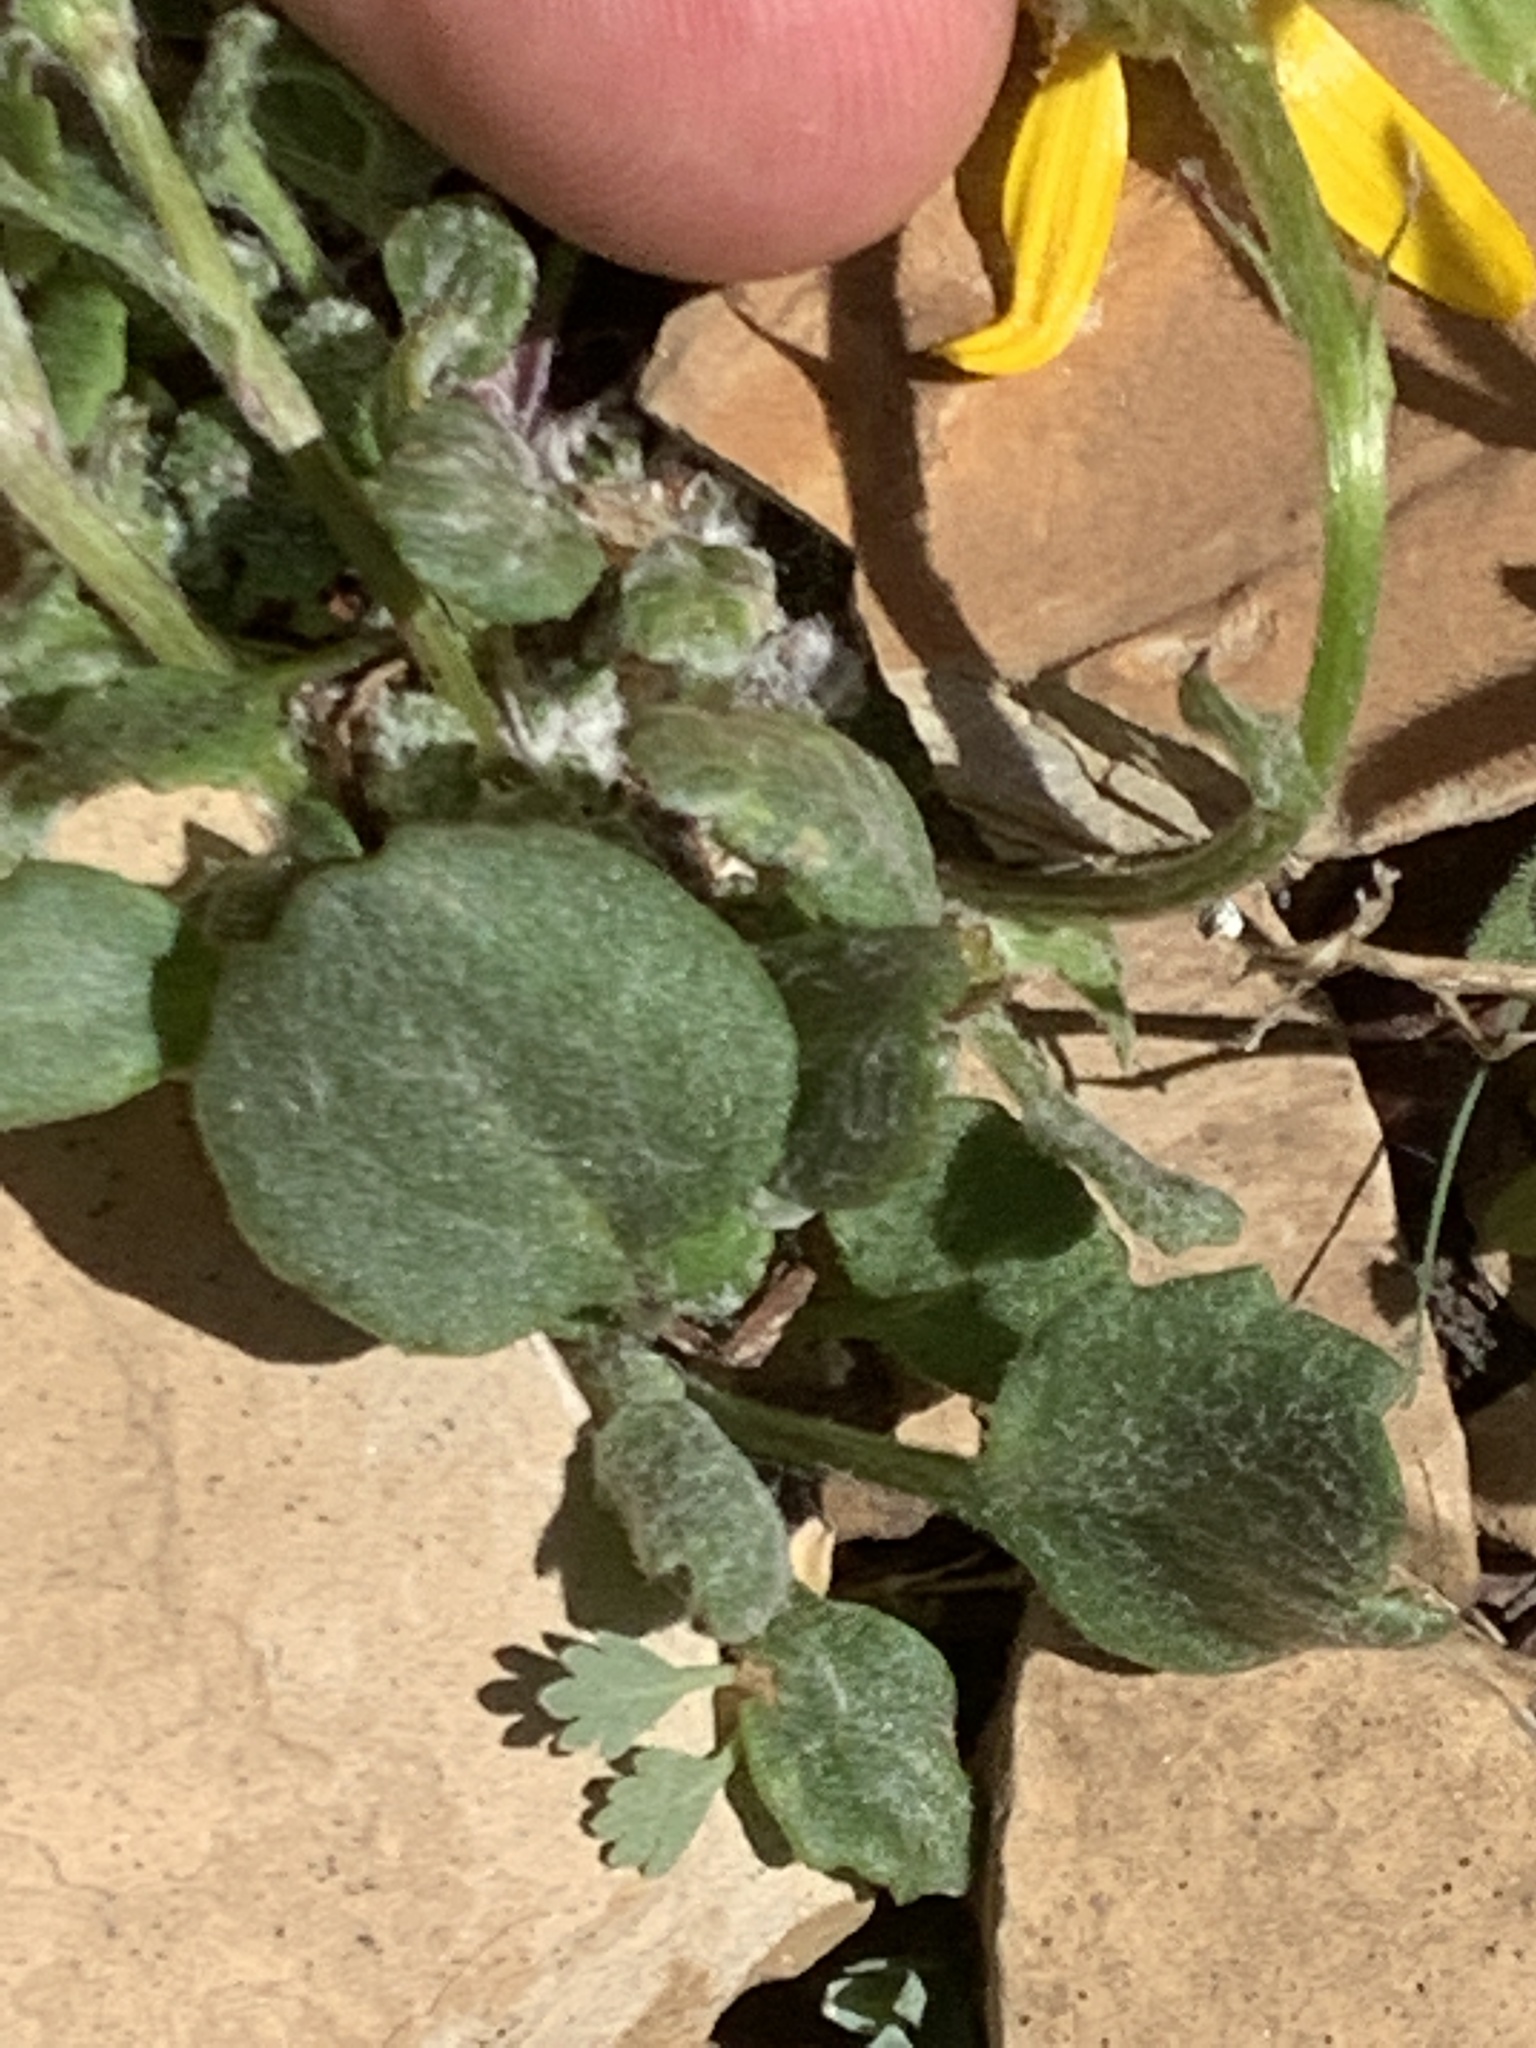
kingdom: Plantae
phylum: Tracheophyta
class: Magnoliopsida
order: Asterales
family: Asteraceae
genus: Packera
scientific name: Packera contermina
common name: High alpine butterweed
